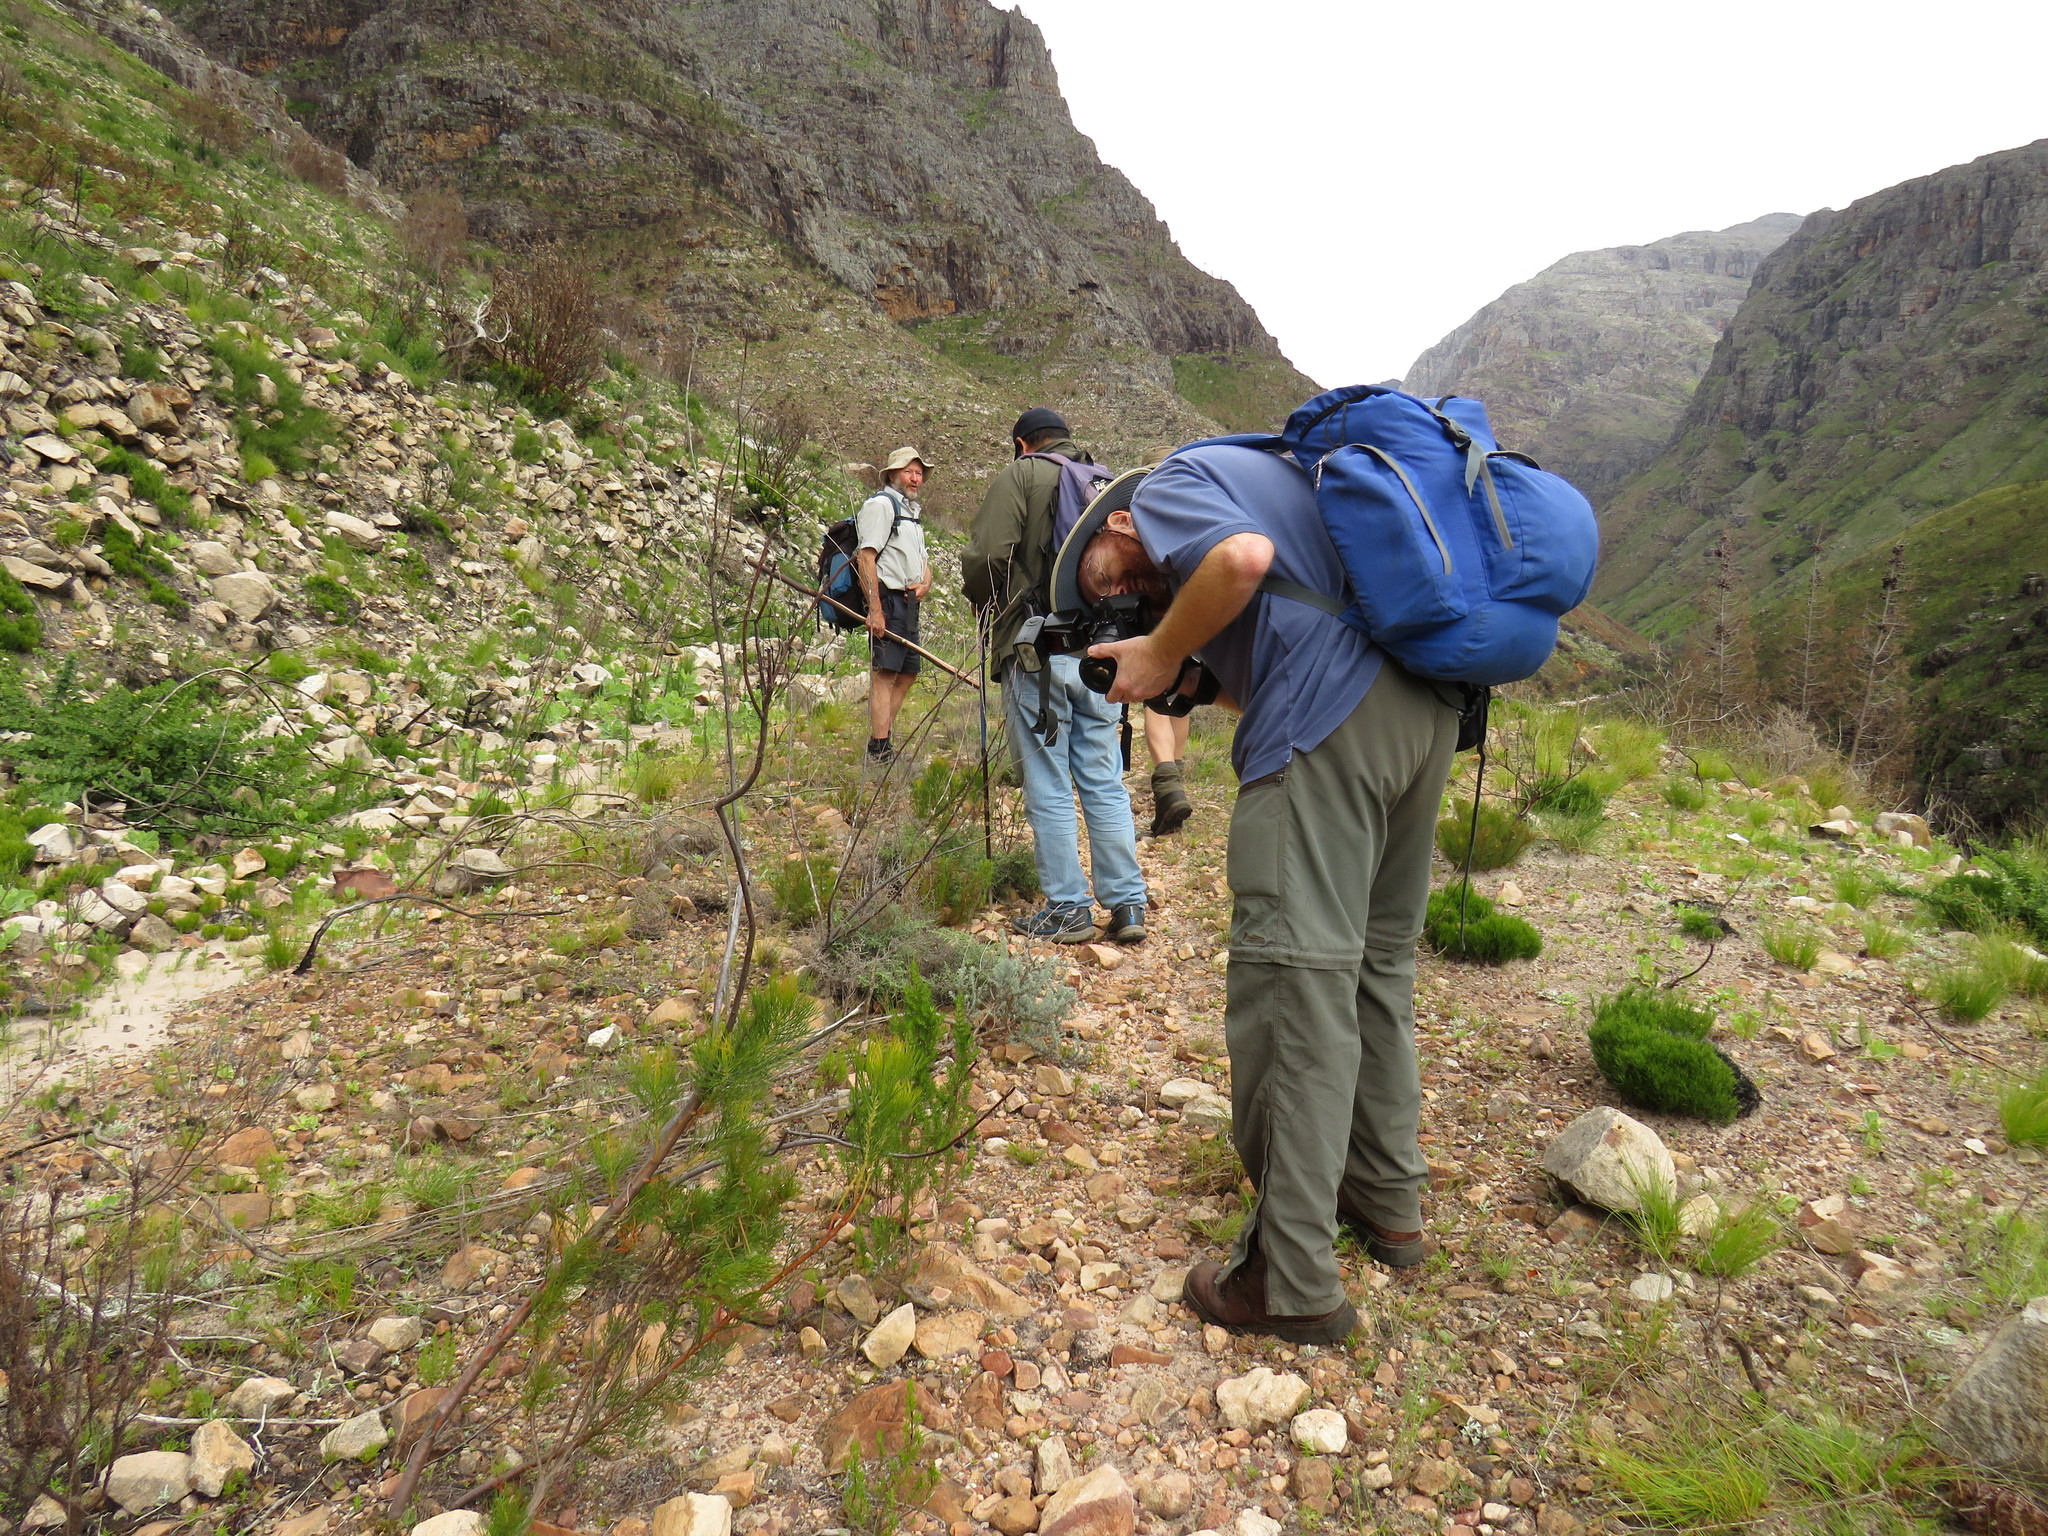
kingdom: Plantae
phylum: Tracheophyta
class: Magnoliopsida
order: Proteales
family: Proteaceae
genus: Serruria
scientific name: Serruria florida
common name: Blushing bride
